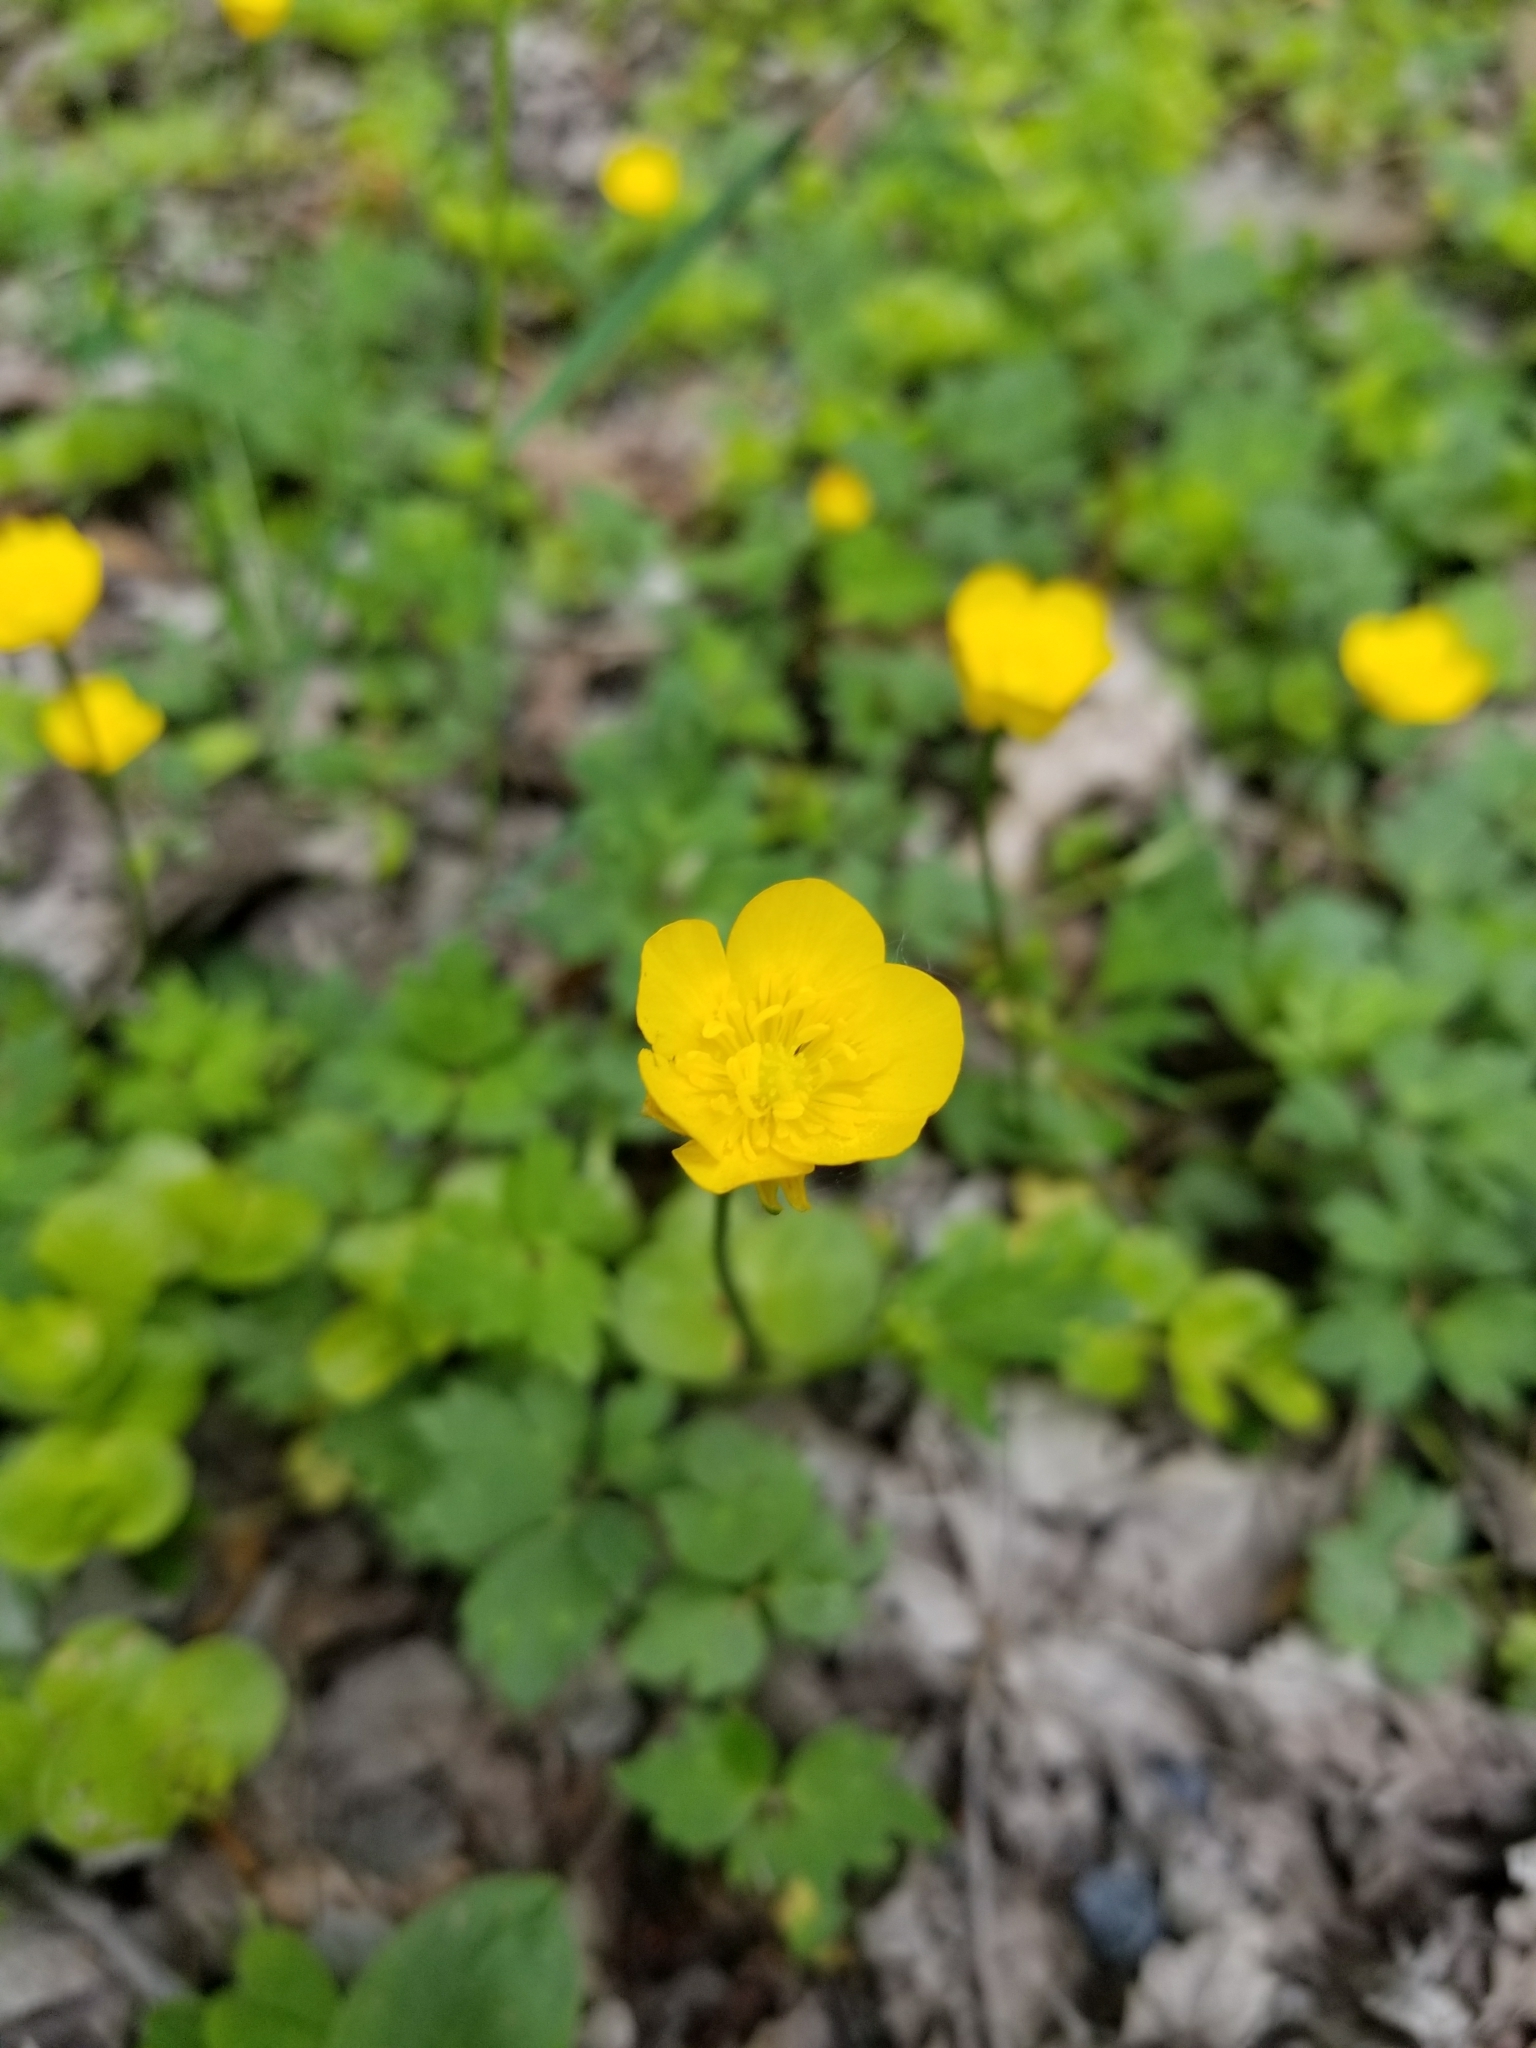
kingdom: Plantae
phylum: Tracheophyta
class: Magnoliopsida
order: Ranunculales
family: Ranunculaceae
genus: Ranunculus
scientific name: Ranunculus repens
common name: Creeping buttercup
